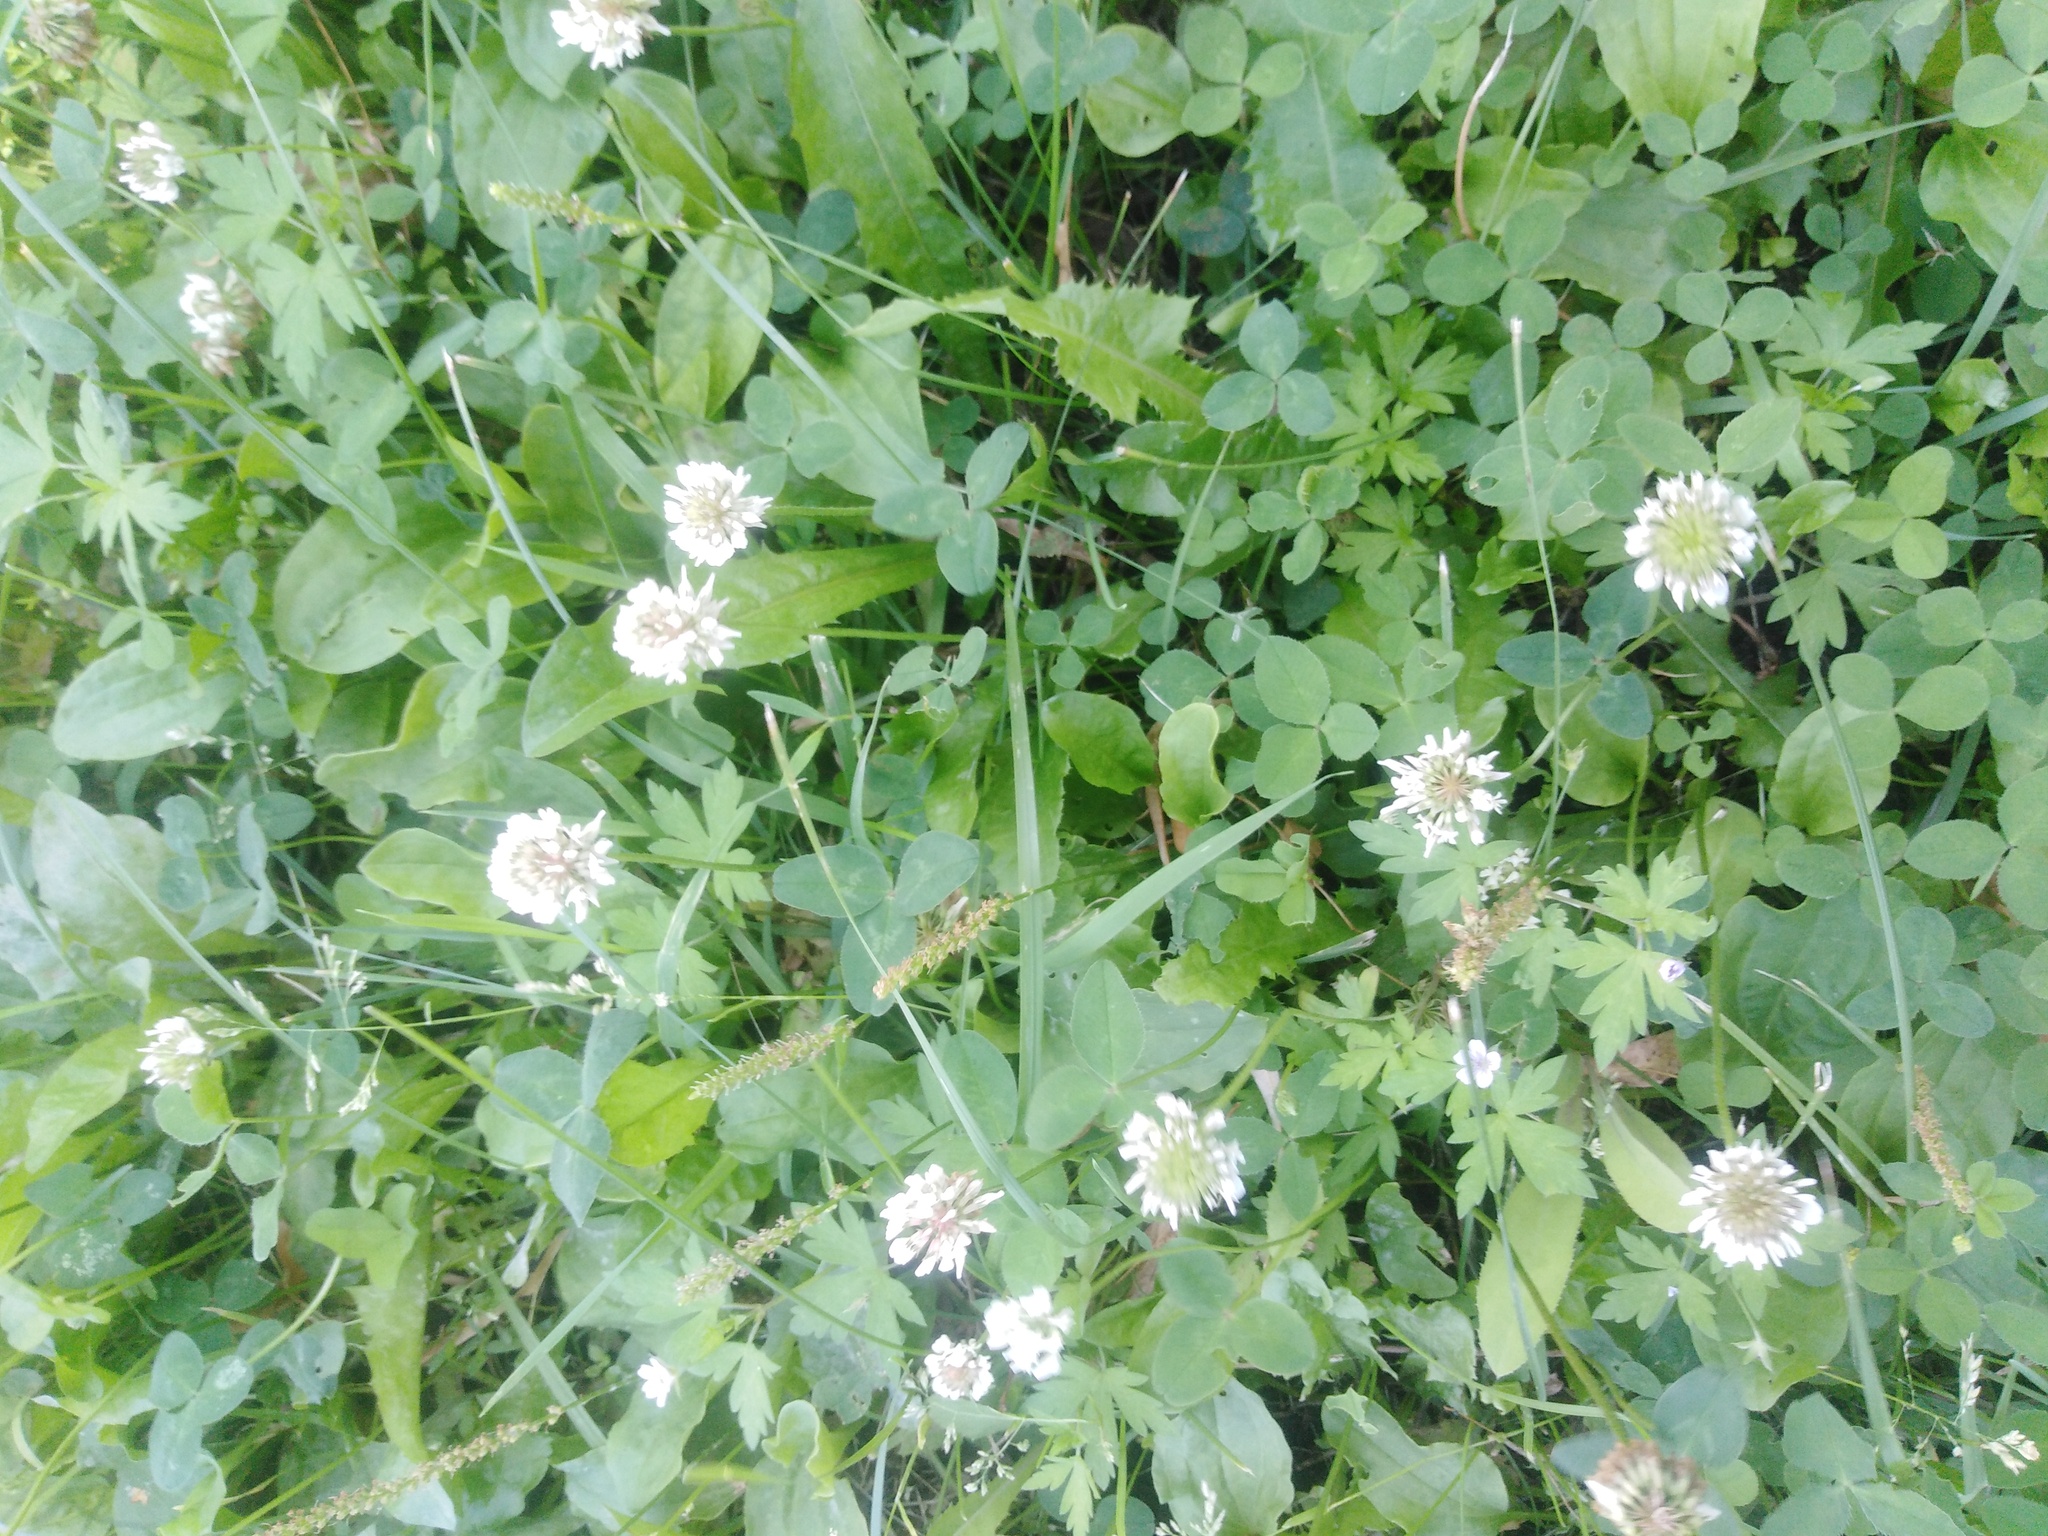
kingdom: Plantae
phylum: Tracheophyta
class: Magnoliopsida
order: Fabales
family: Fabaceae
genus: Trifolium
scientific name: Trifolium repens
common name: White clover
